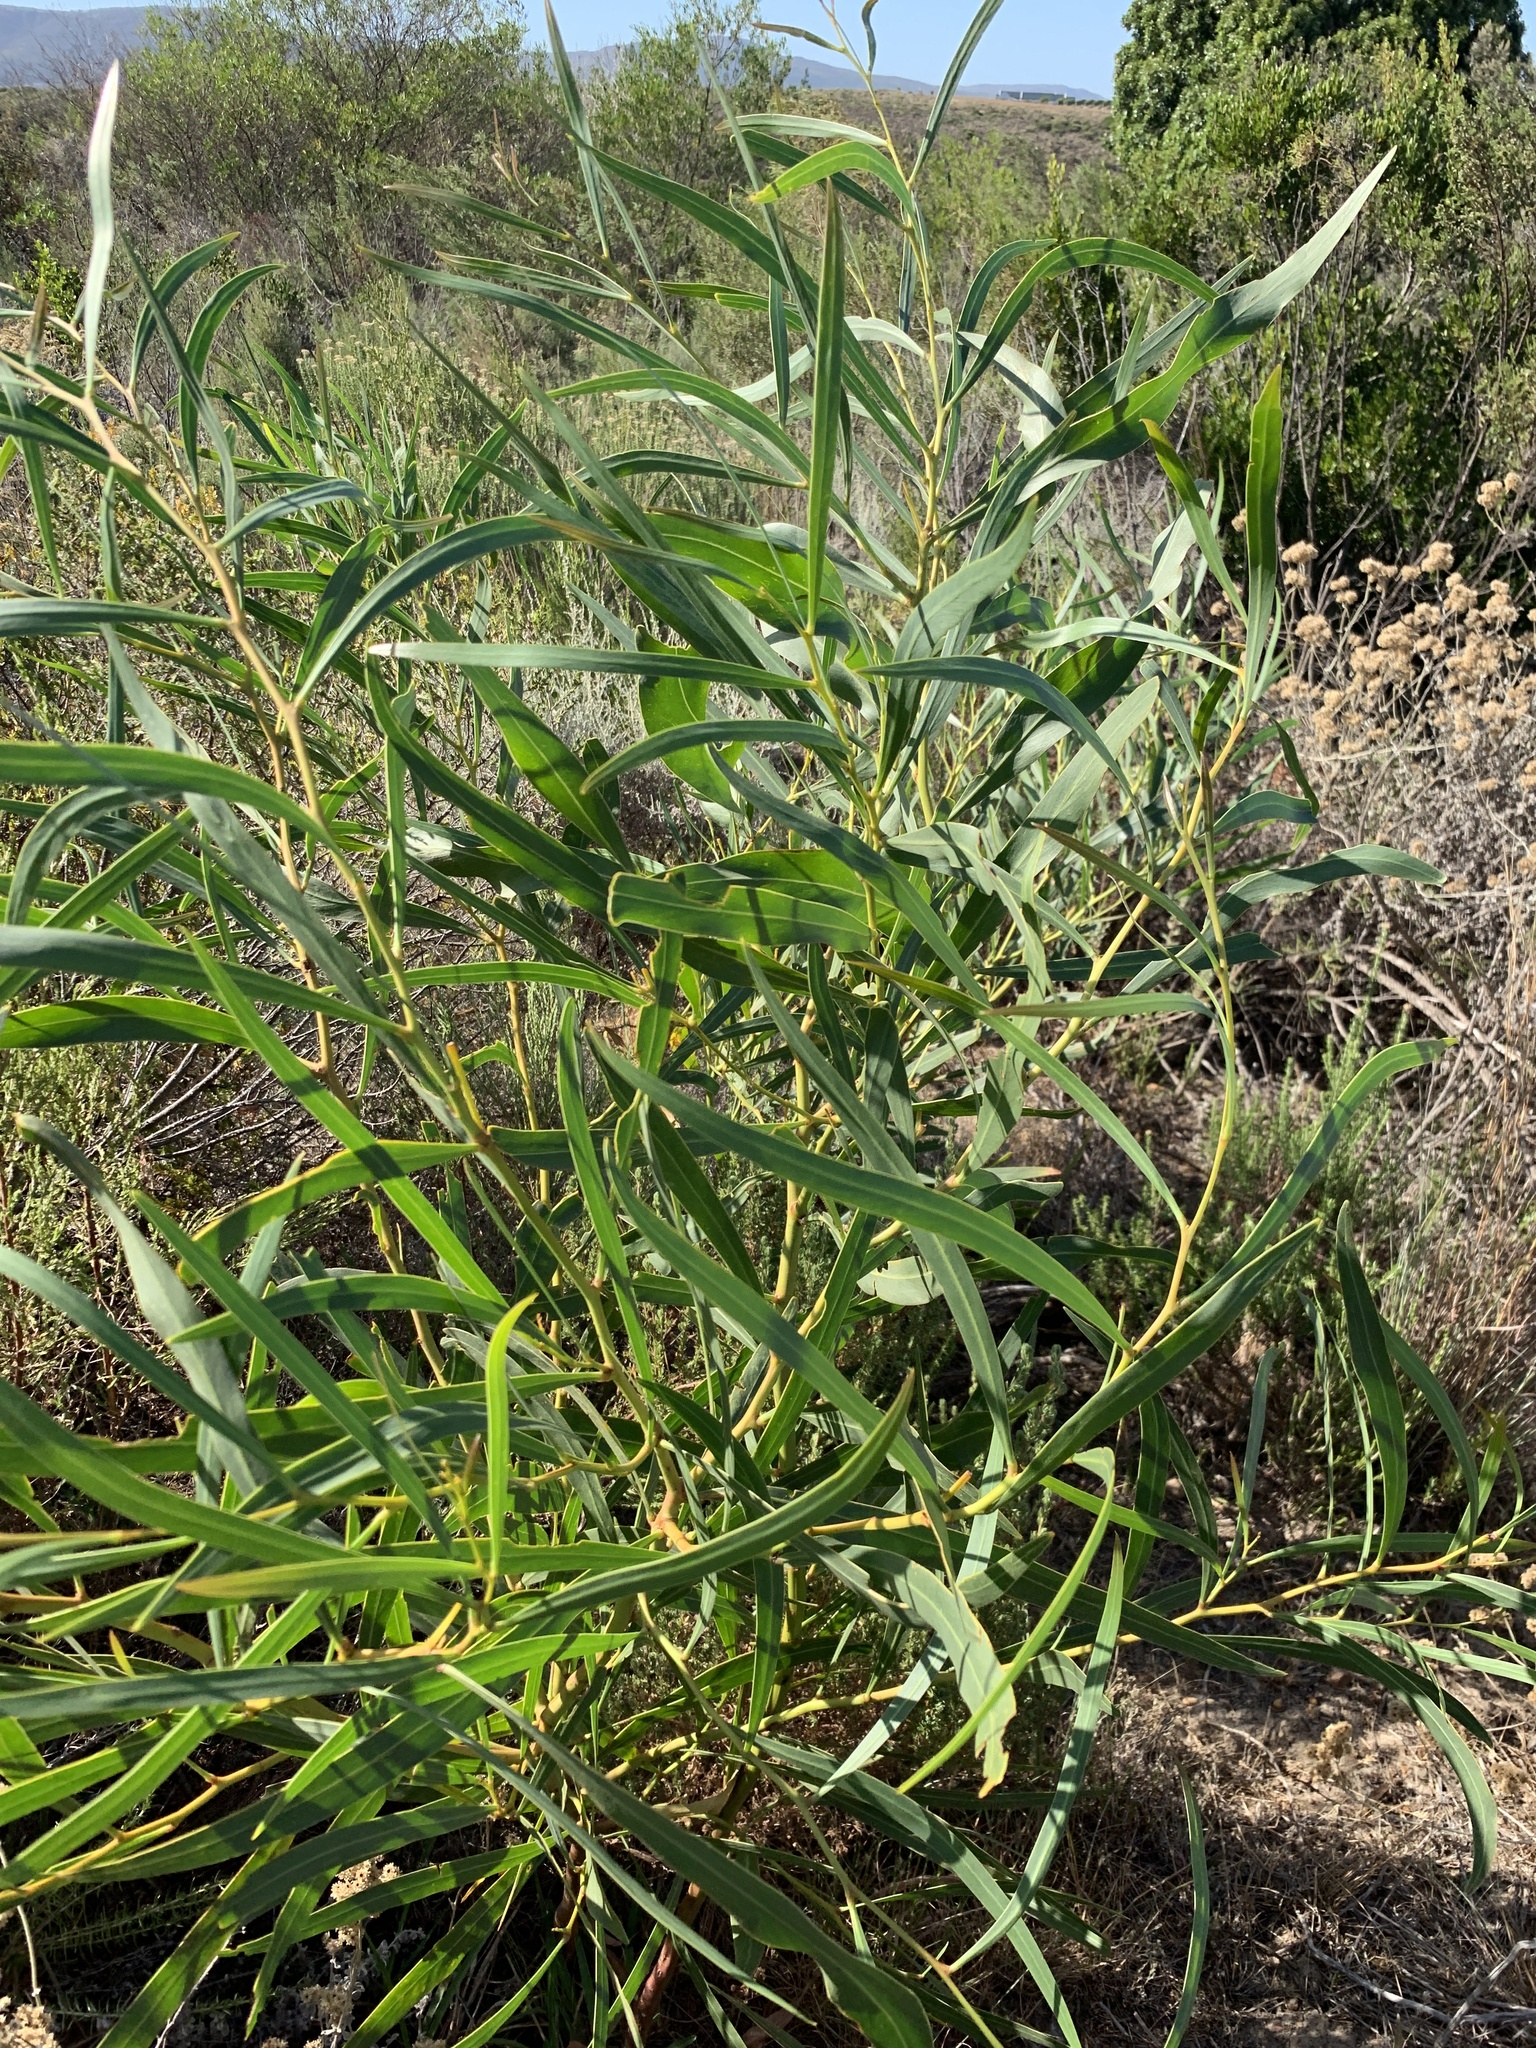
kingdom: Plantae
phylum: Tracheophyta
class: Magnoliopsida
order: Fabales
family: Fabaceae
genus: Acacia
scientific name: Acacia saligna
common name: Orange wattle
